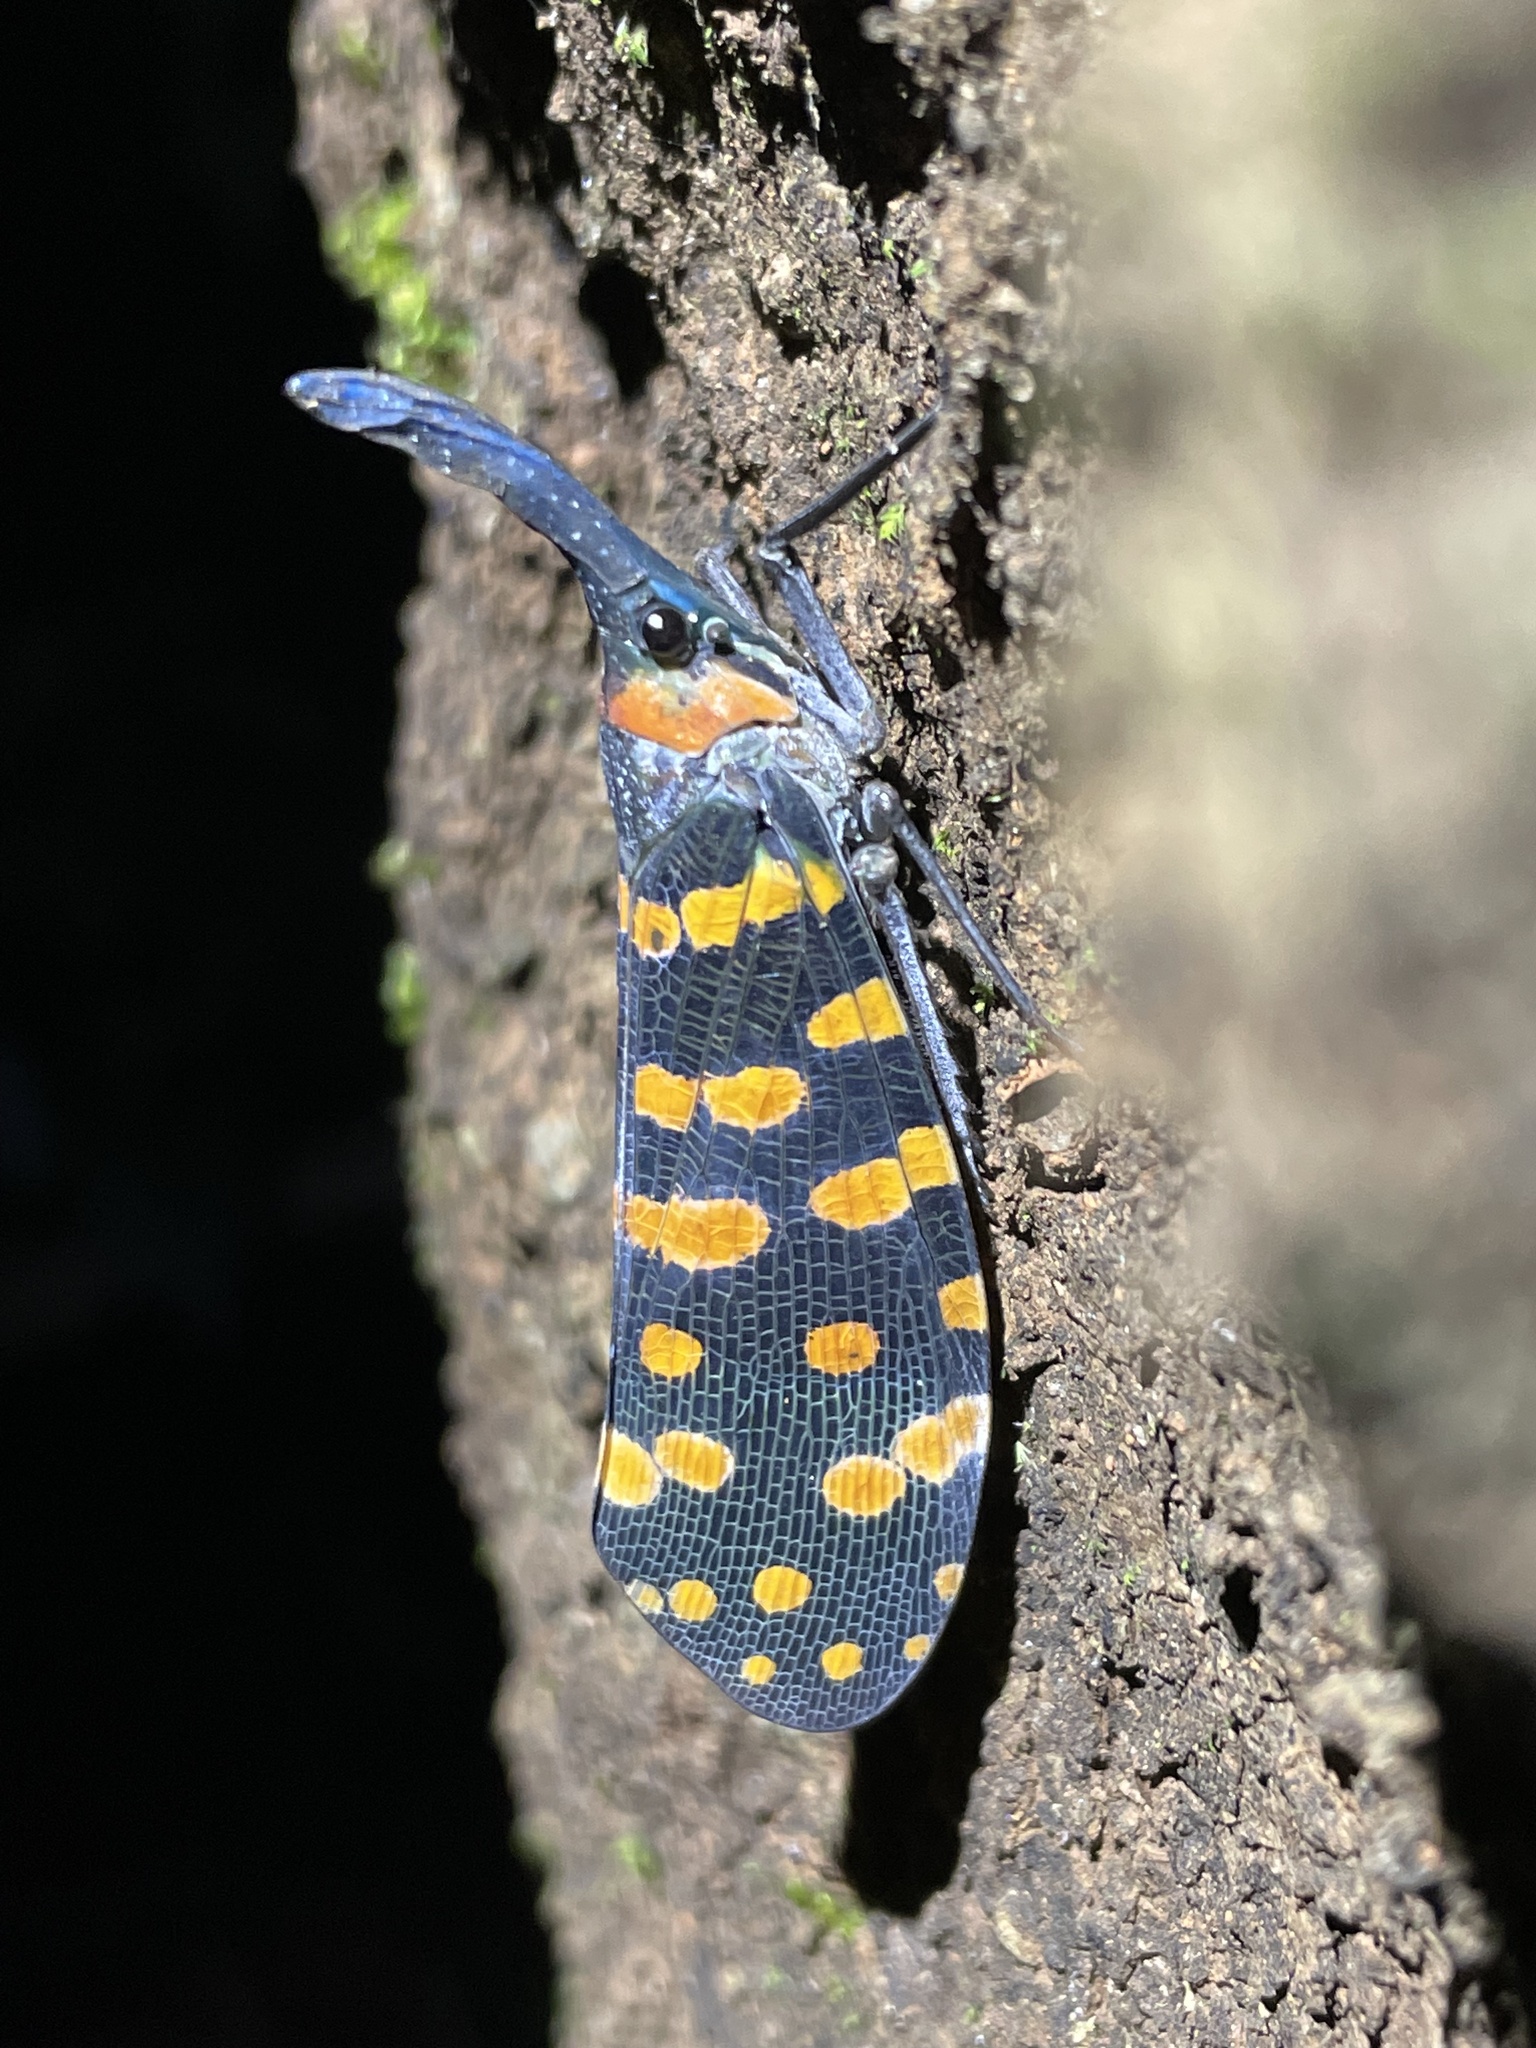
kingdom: Animalia
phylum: Arthropoda
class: Insecta
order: Hemiptera
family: Fulgoridae
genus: Pyrops
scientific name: Pyrops
